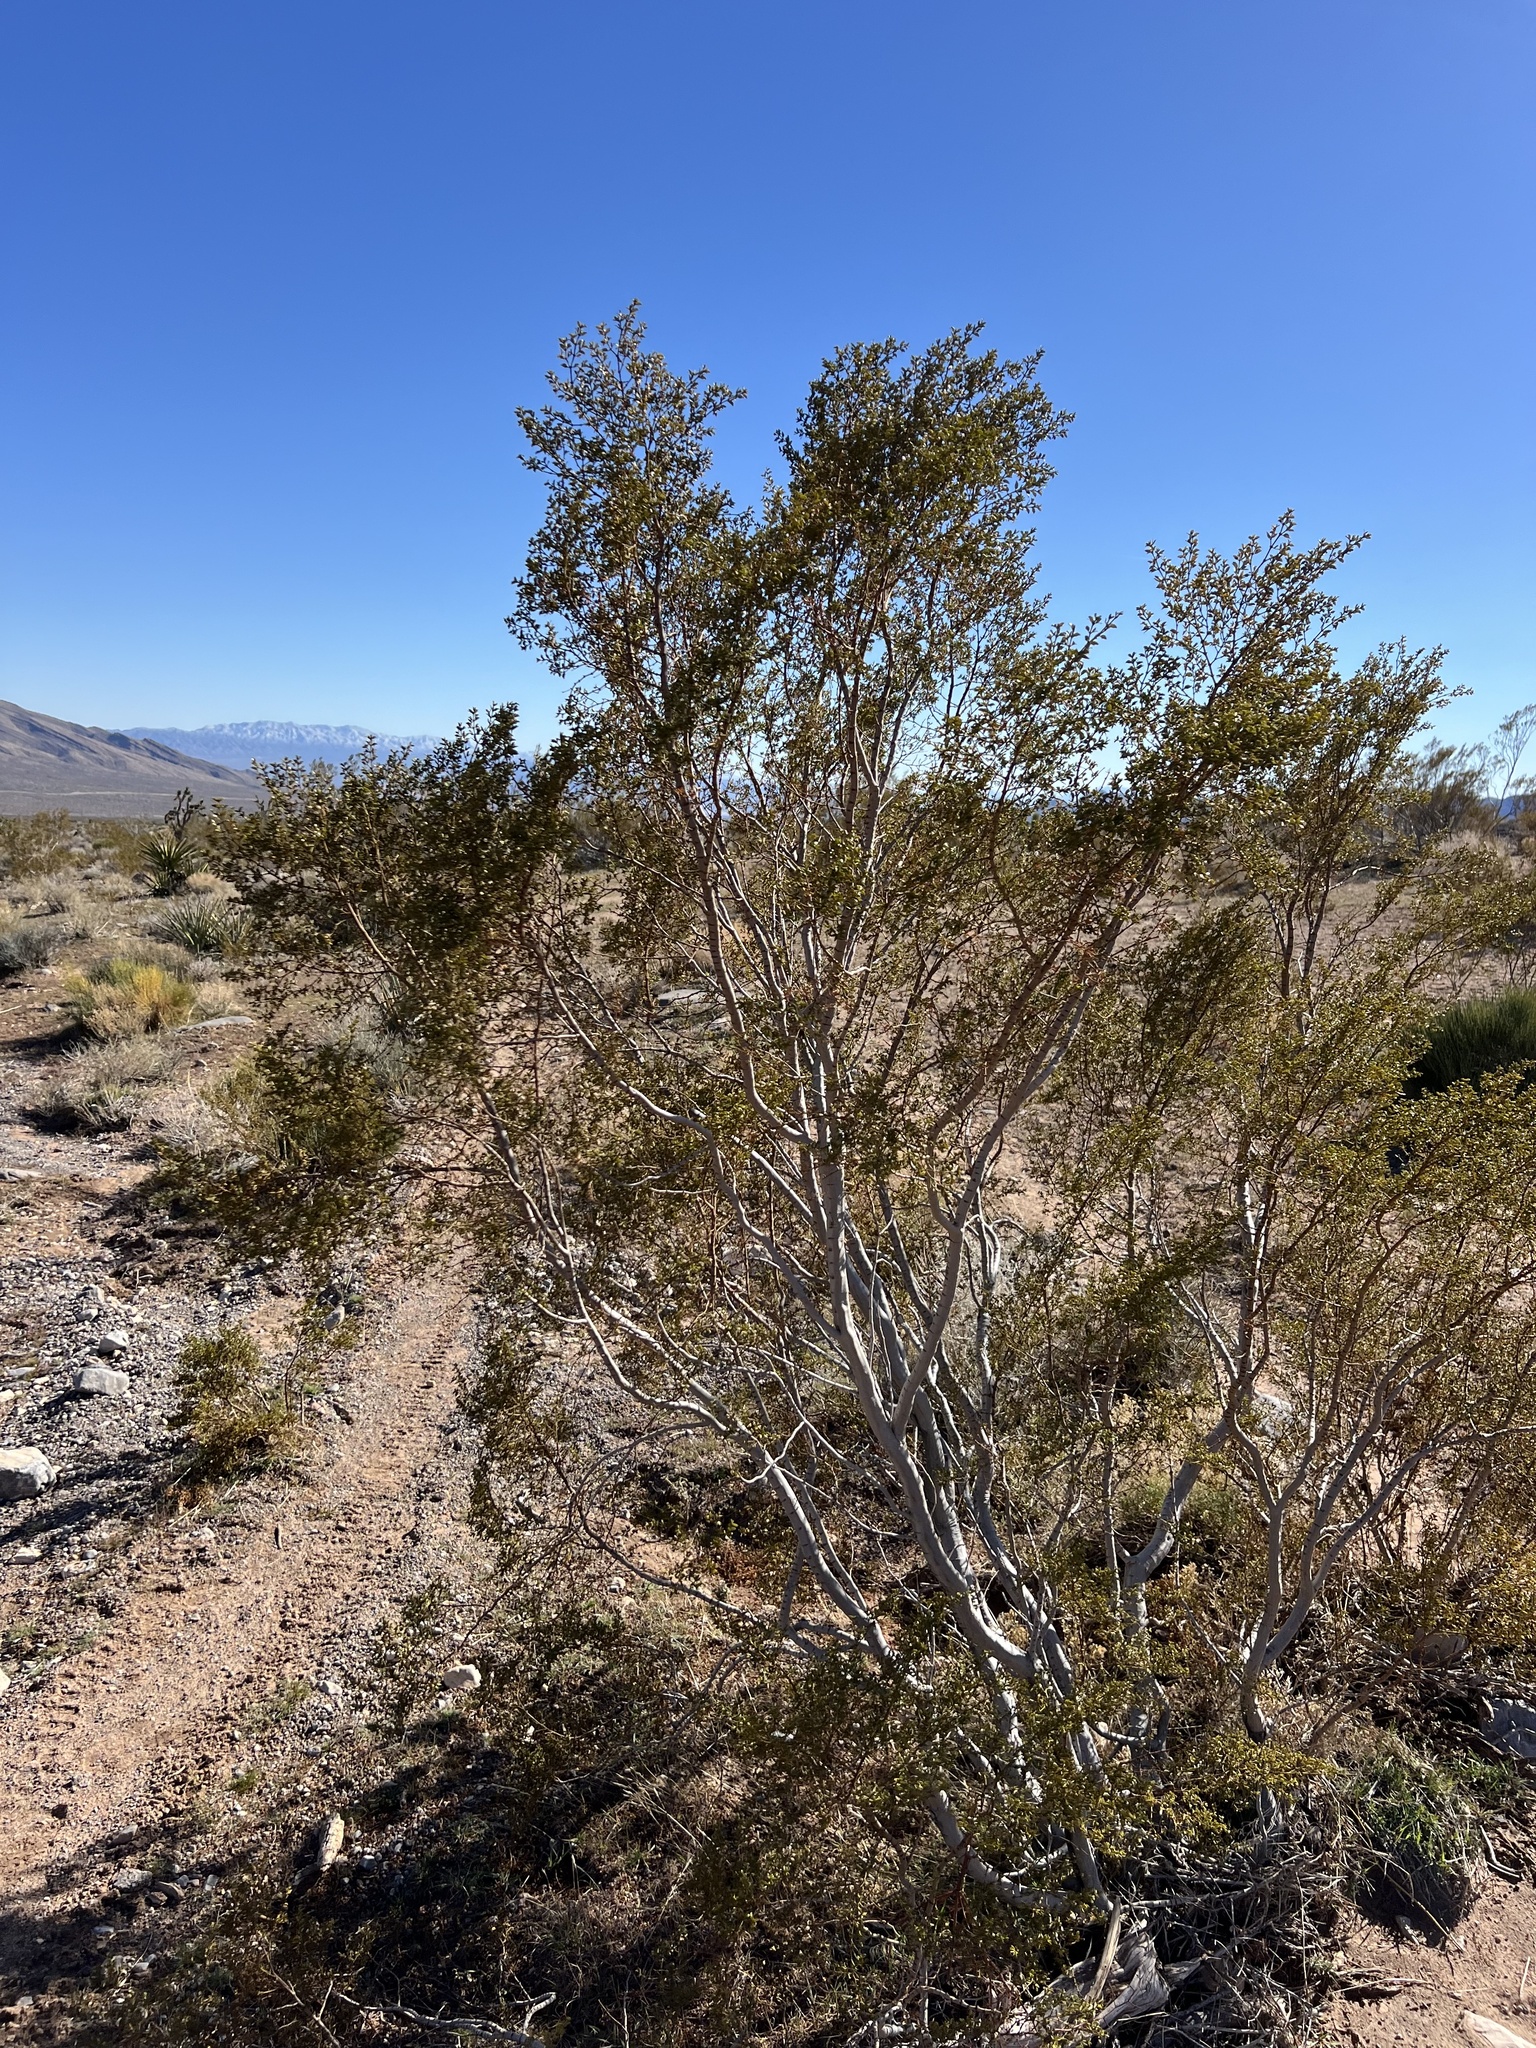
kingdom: Plantae
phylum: Tracheophyta
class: Magnoliopsida
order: Zygophyllales
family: Zygophyllaceae
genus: Larrea
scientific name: Larrea tridentata
